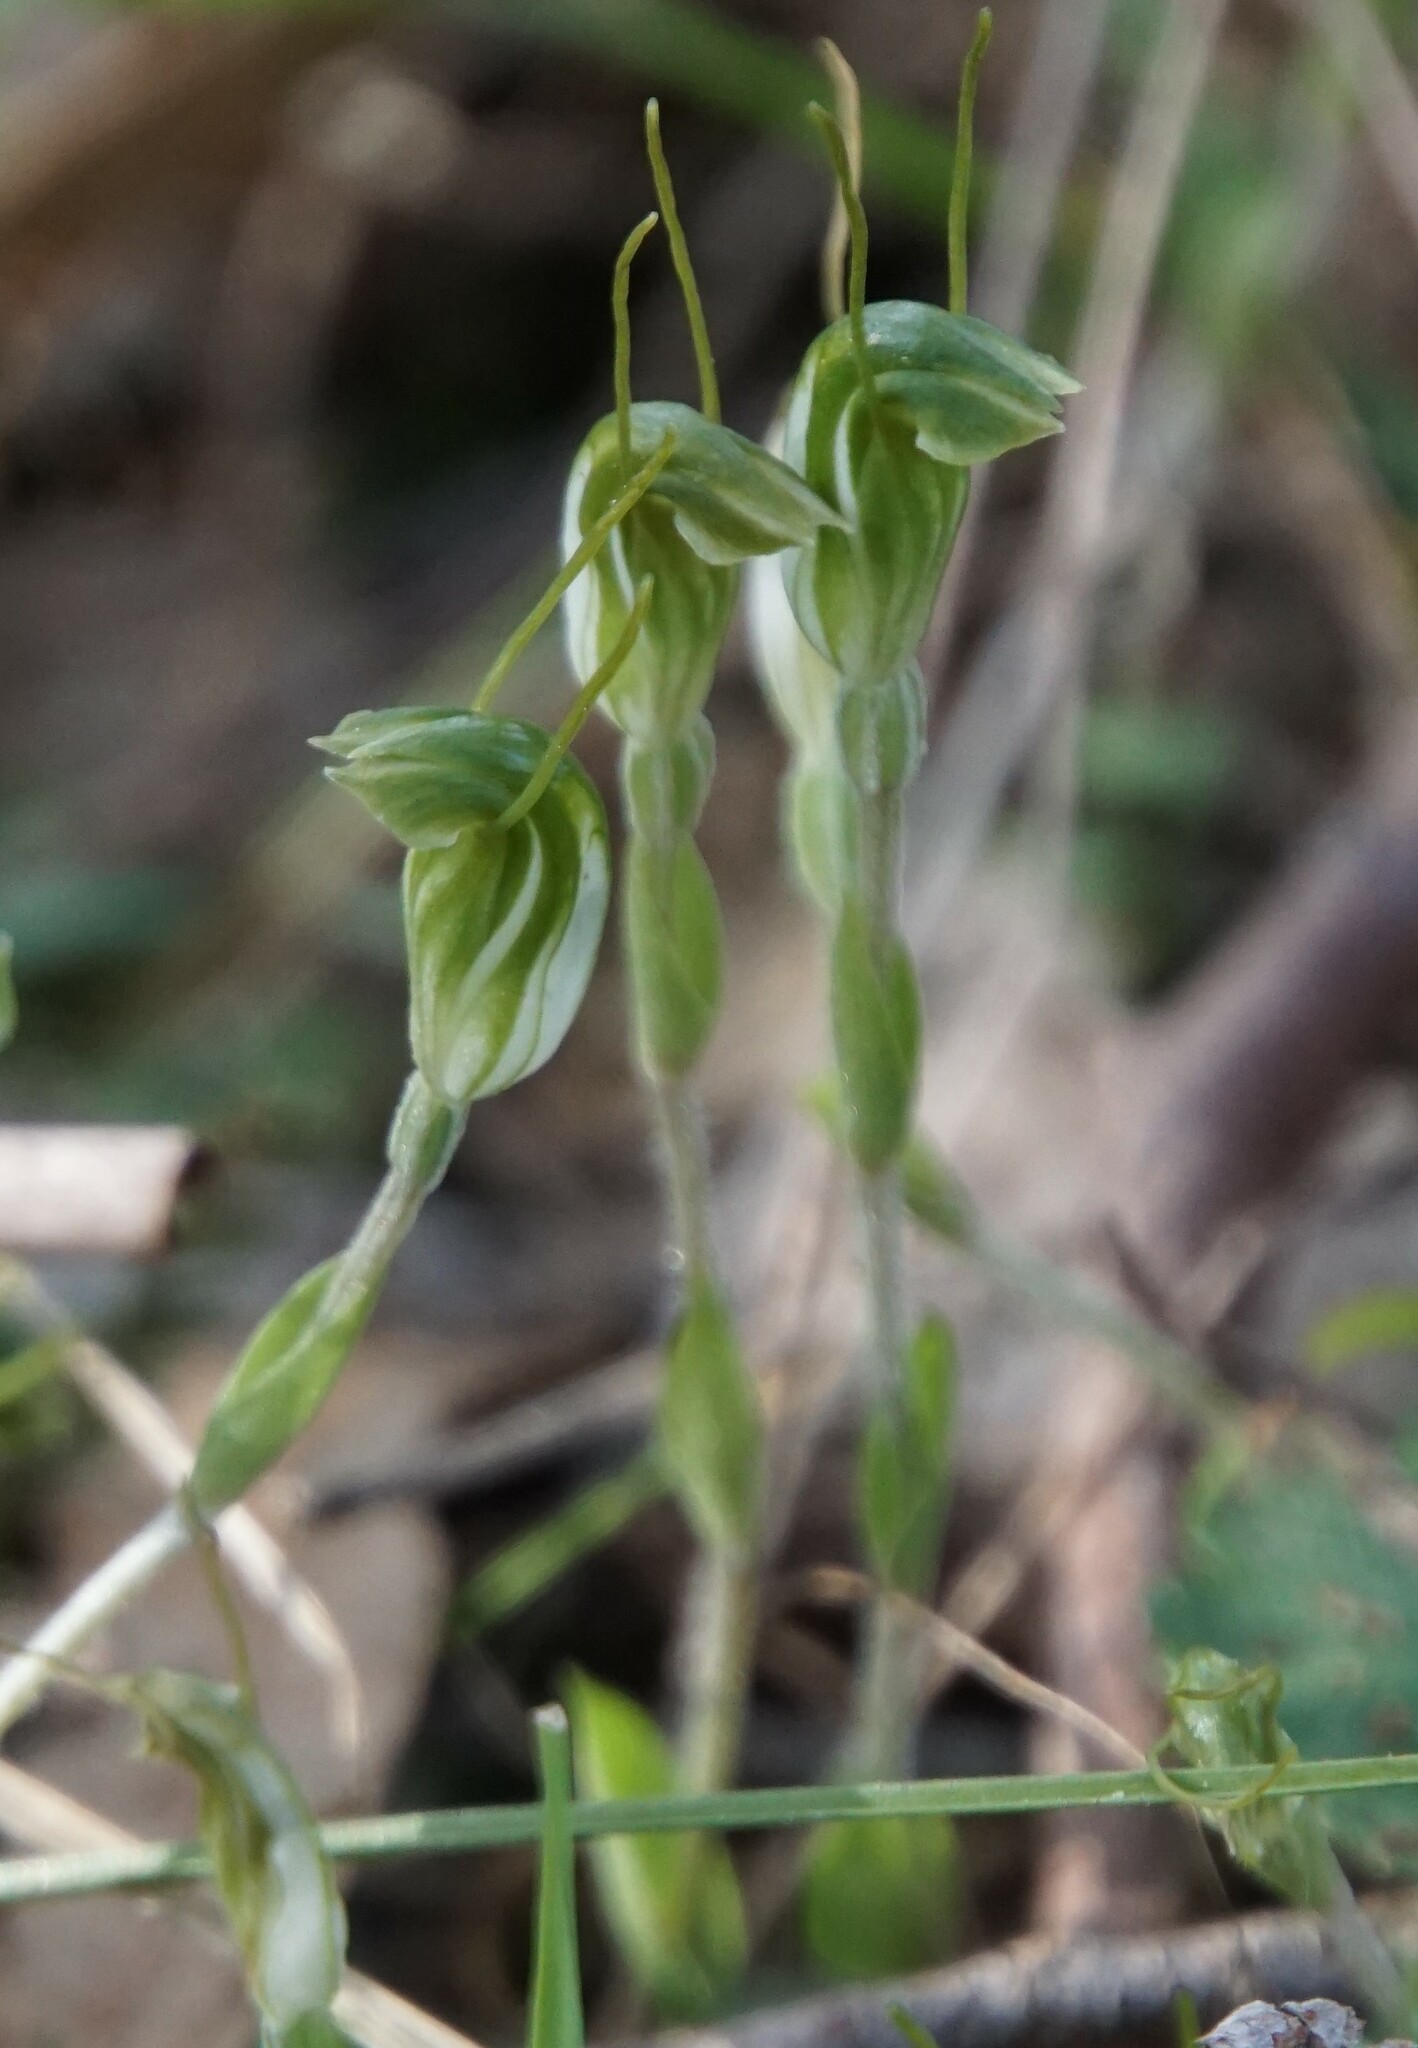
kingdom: Plantae
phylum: Tracheophyta
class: Liliopsida
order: Asparagales
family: Orchidaceae
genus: Pterostylis
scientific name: Pterostylis nana
